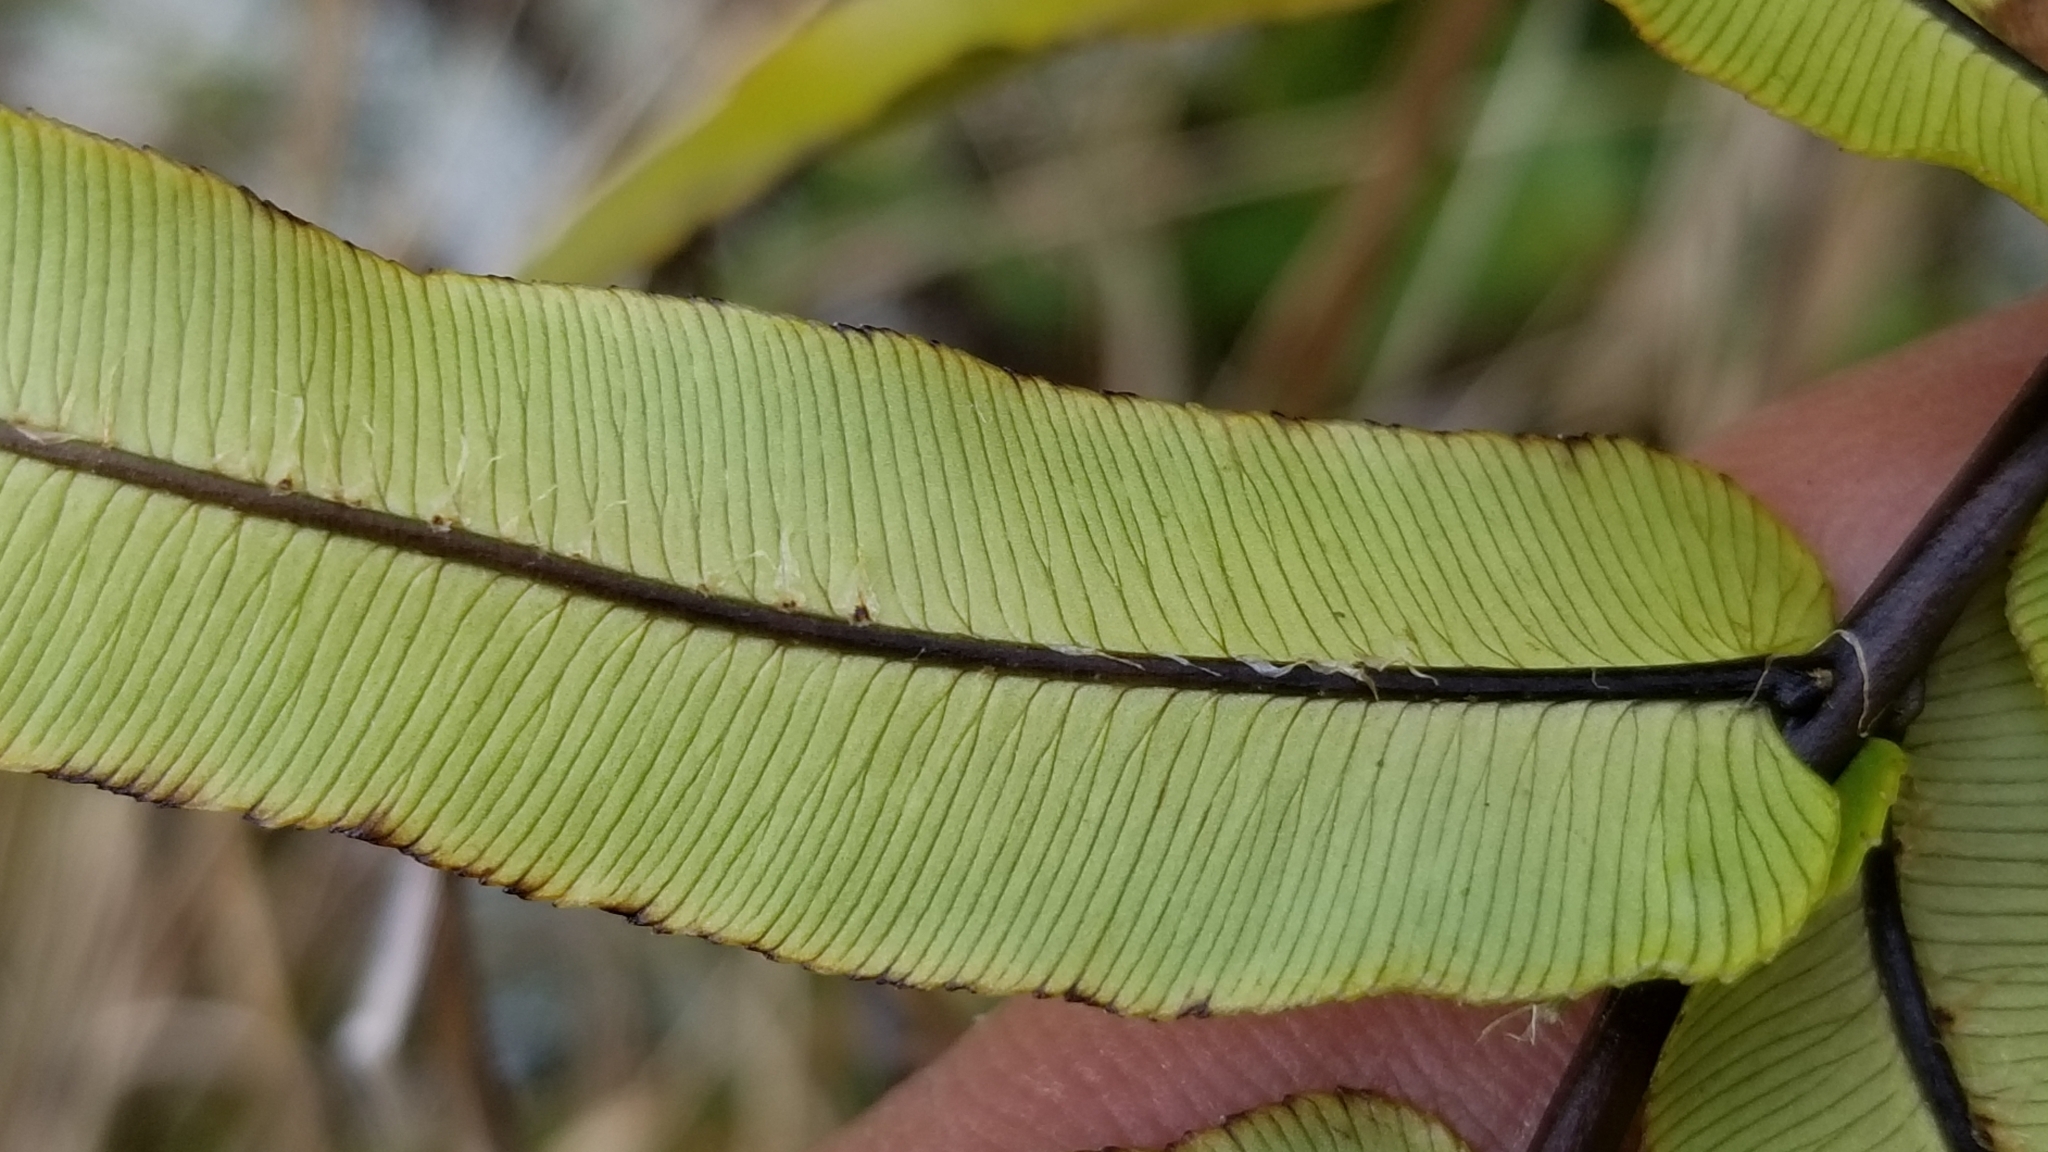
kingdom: Plantae
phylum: Tracheophyta
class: Polypodiopsida
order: Polypodiales
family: Blechnaceae
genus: Parablechnum
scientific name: Parablechnum montanum
